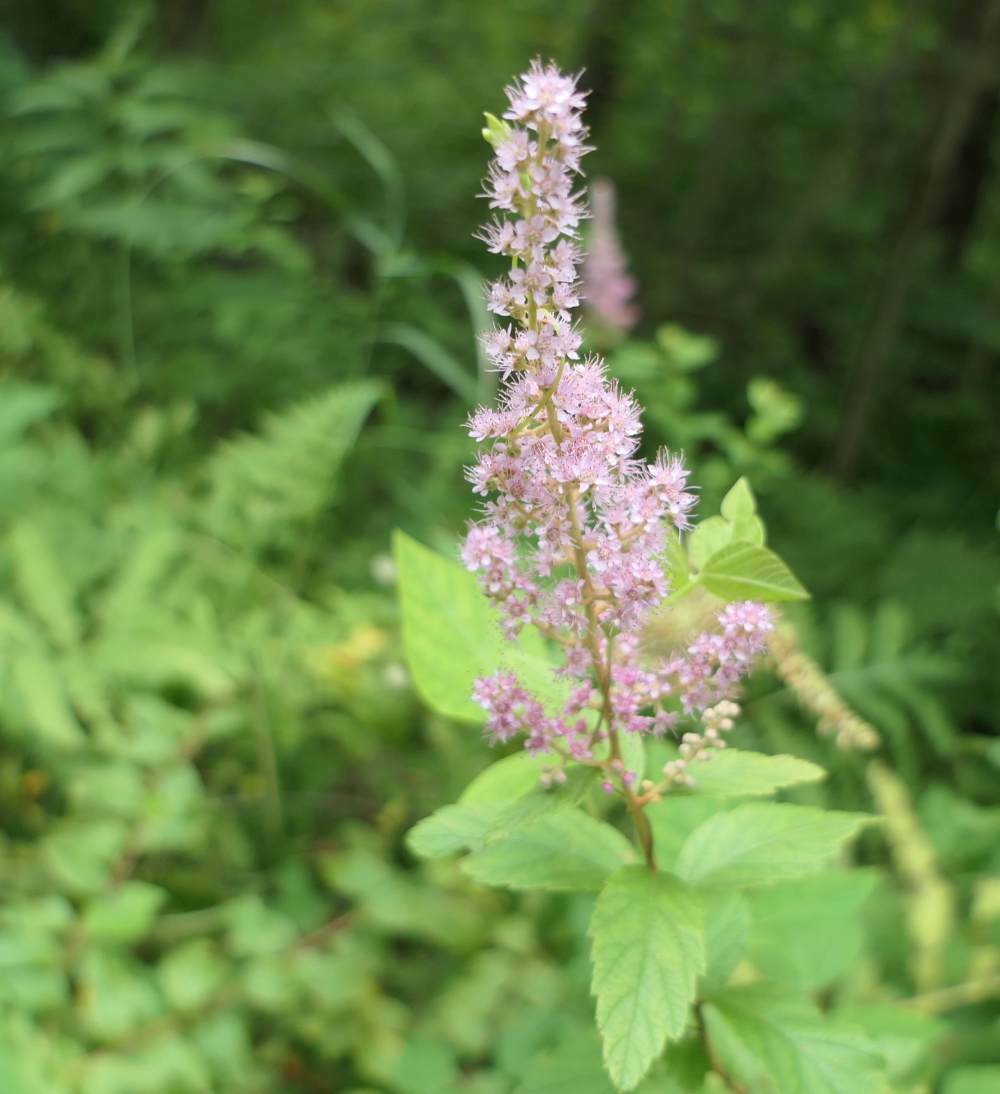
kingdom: Plantae
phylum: Tracheophyta
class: Magnoliopsida
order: Rosales
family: Rosaceae
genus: Spiraea
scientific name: Spiraea tomentosa
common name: Hardhack
